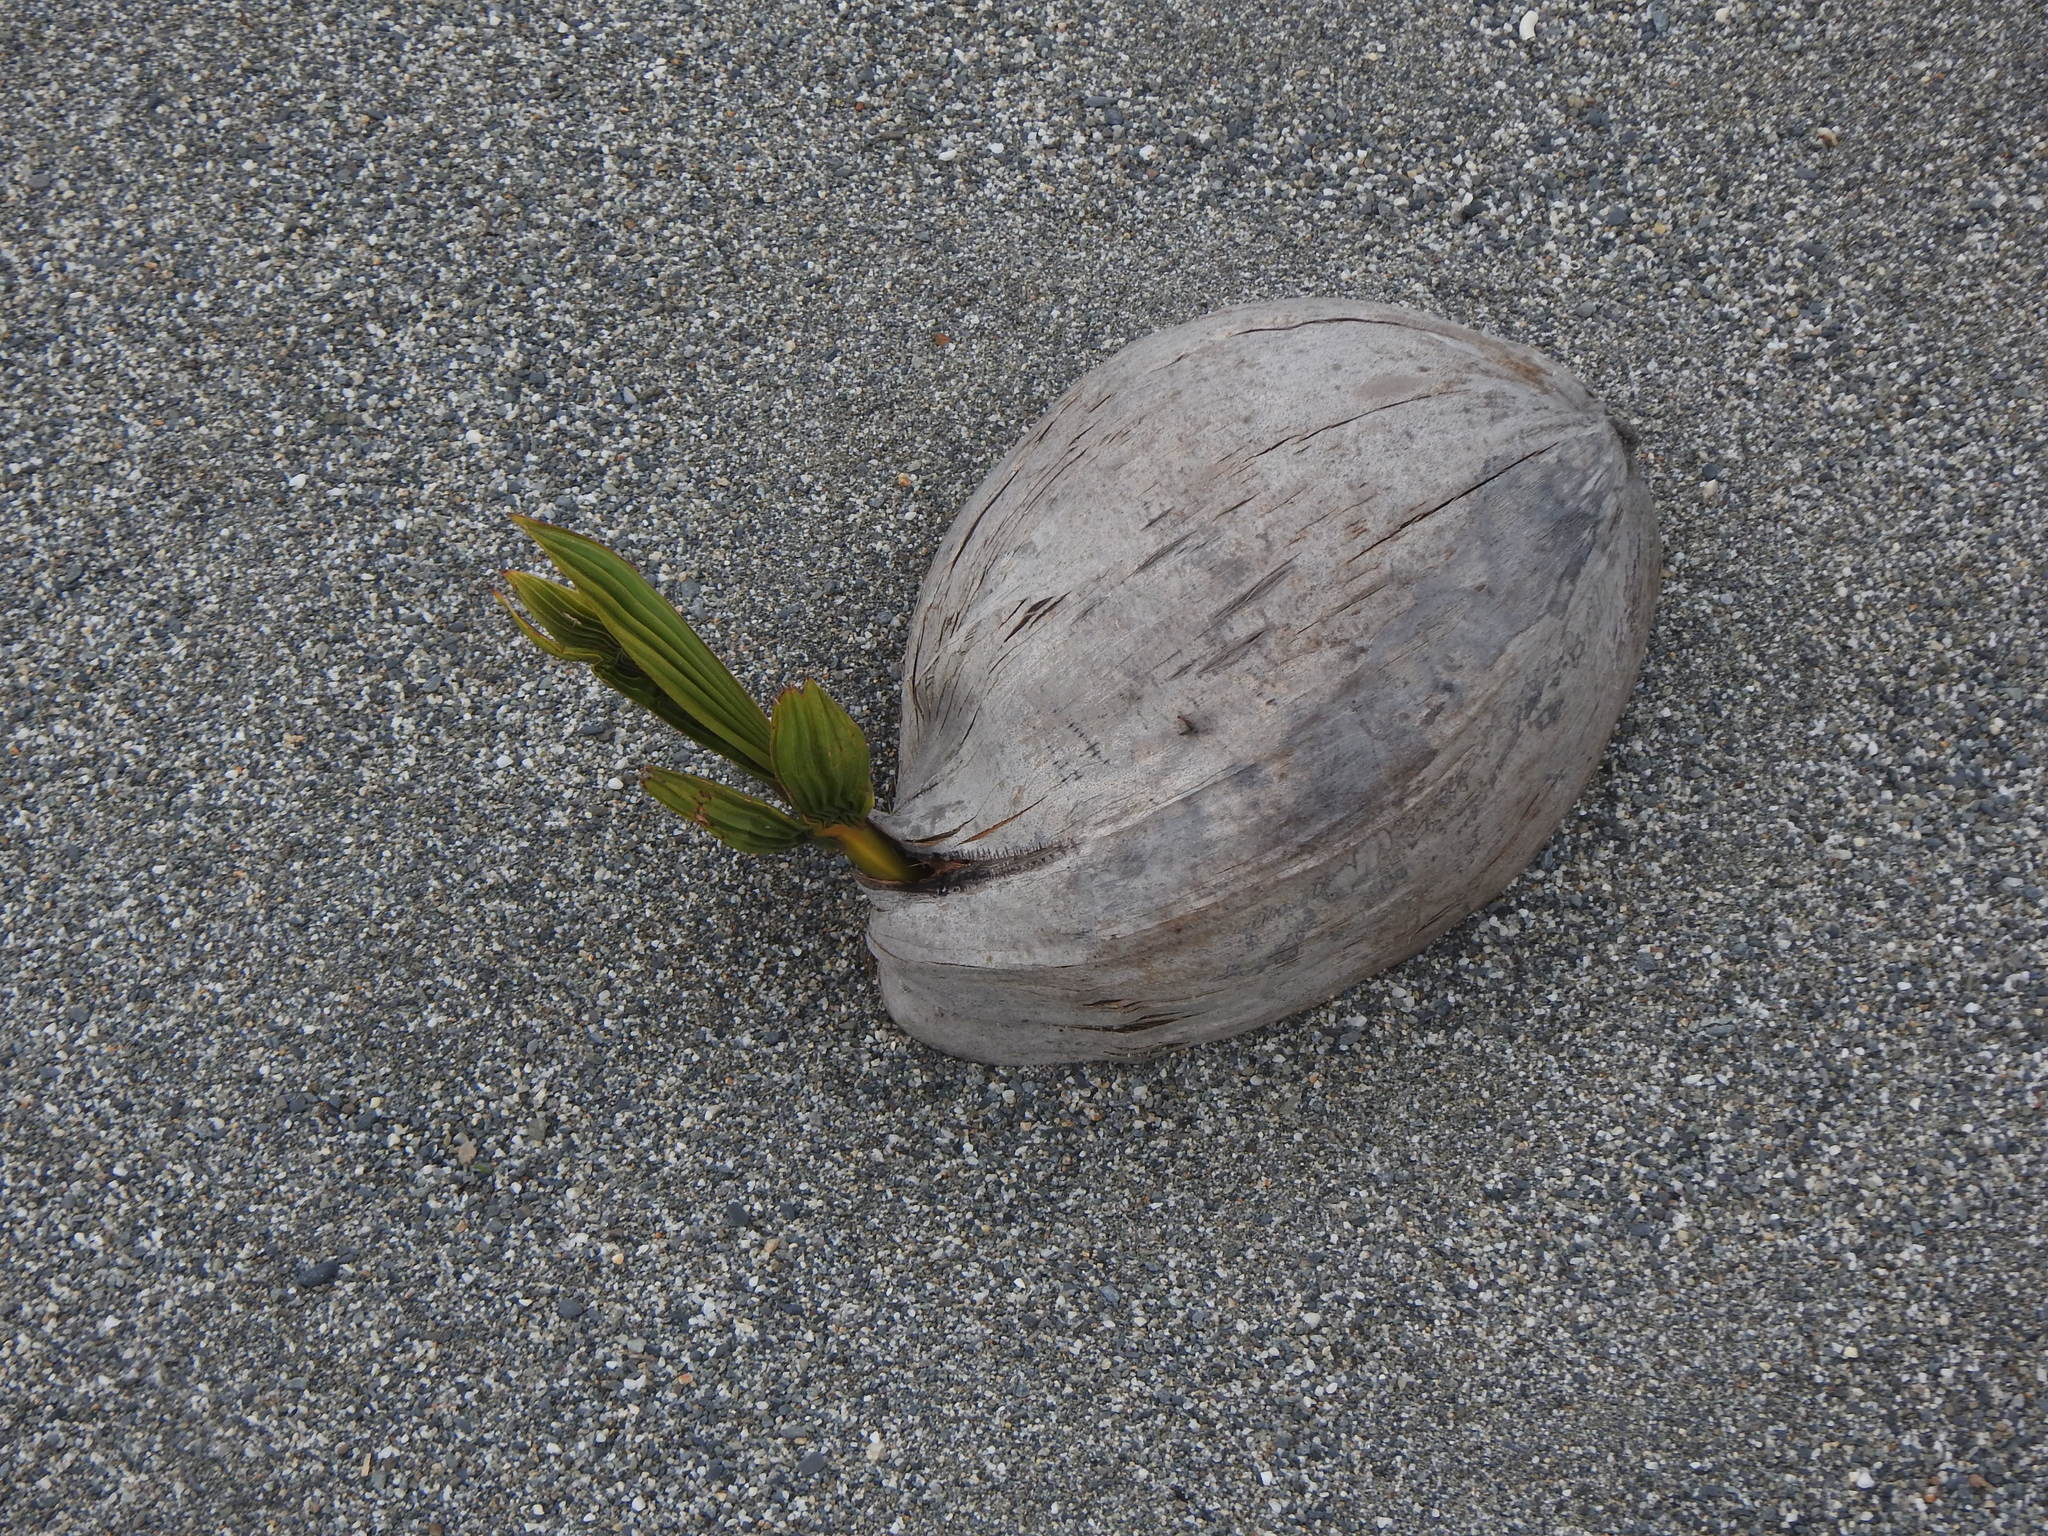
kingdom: Plantae
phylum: Tracheophyta
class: Liliopsida
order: Arecales
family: Arecaceae
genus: Cocos
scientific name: Cocos nucifera
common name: Coconut palm
